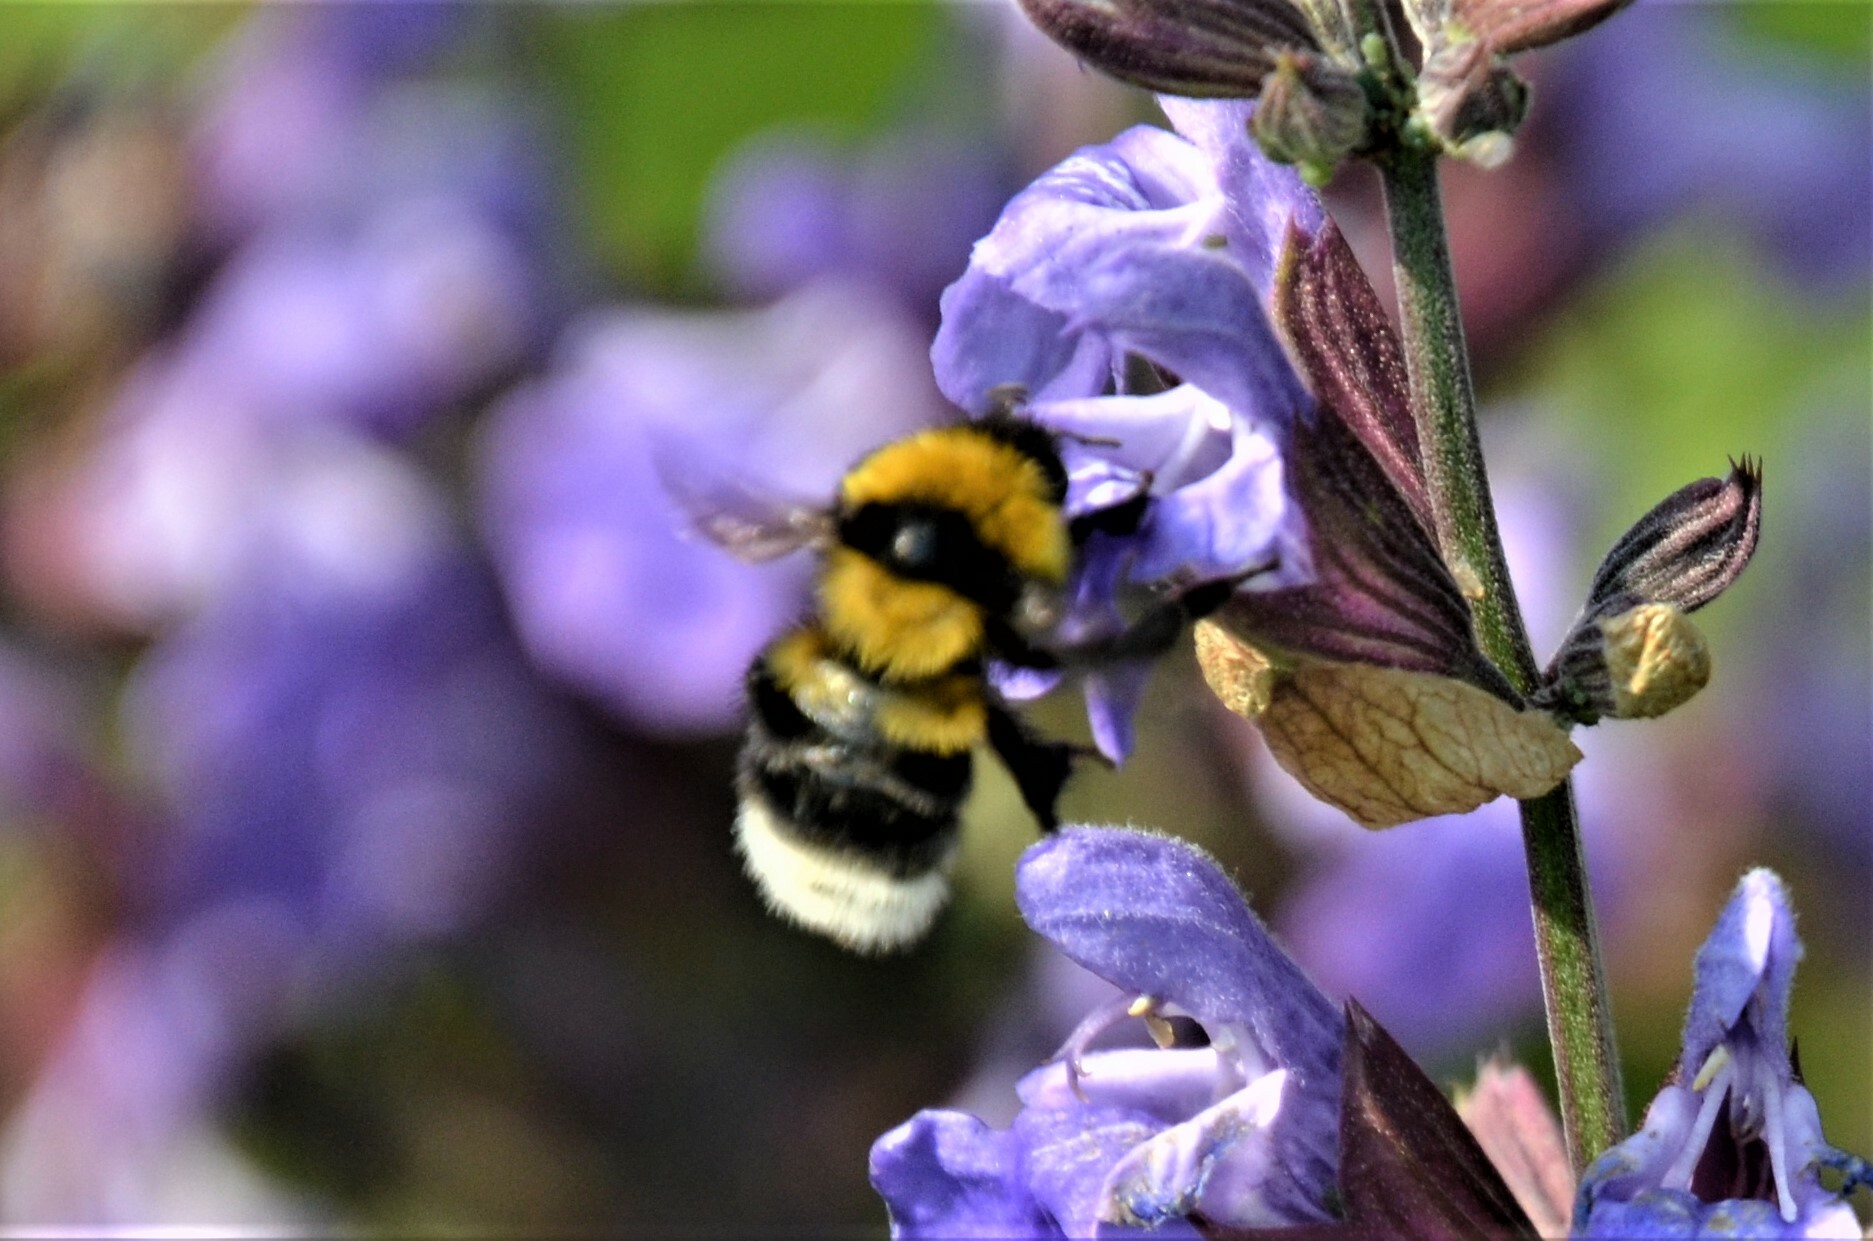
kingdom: Animalia
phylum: Arthropoda
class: Insecta
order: Hymenoptera
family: Apidae
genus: Bombus
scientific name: Bombus ruderatus
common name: Large garden bumblebee
